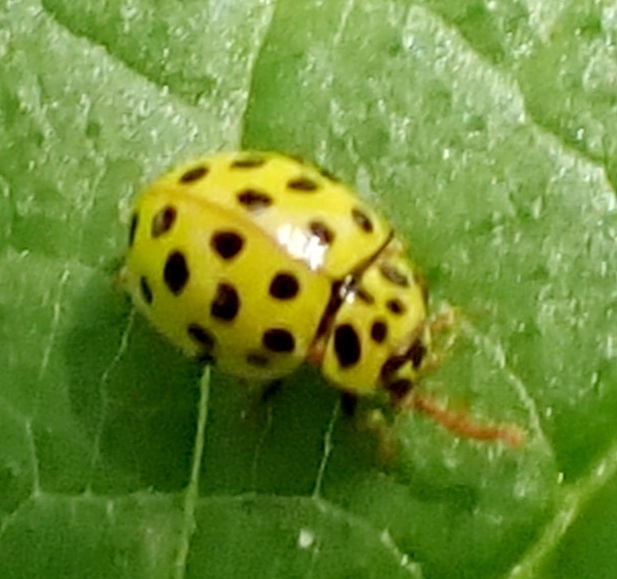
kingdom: Animalia
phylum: Arthropoda
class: Insecta
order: Coleoptera
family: Coccinellidae
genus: Psyllobora
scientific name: Psyllobora vigintiduopunctata
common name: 22-spot ladybird
